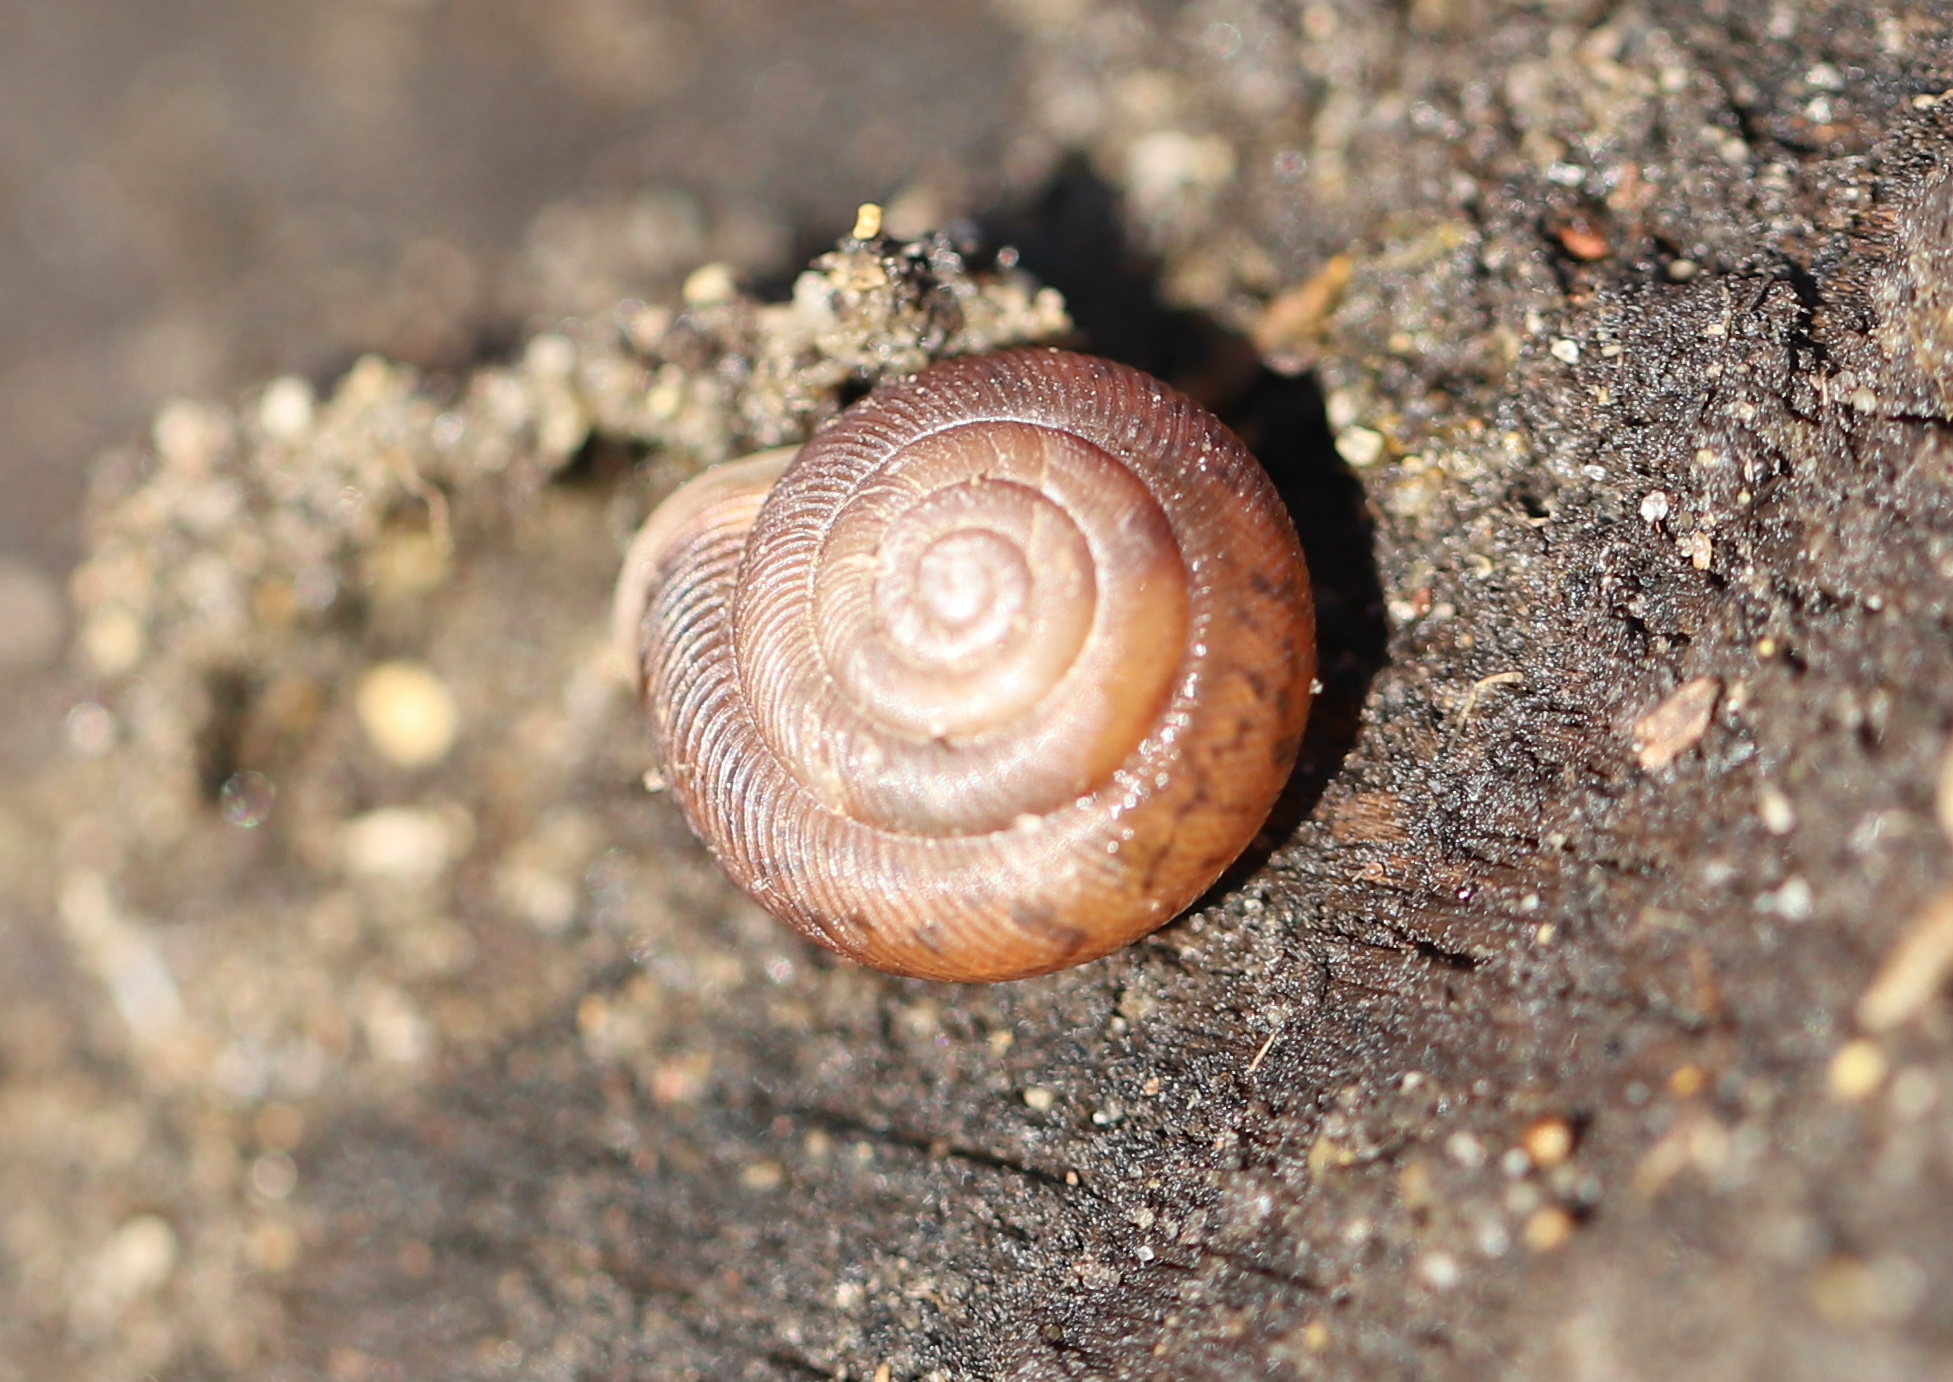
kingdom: Animalia
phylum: Mollusca
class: Gastropoda
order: Stylommatophora
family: Polygyridae
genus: Triodopsis
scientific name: Triodopsis hopetonensis
